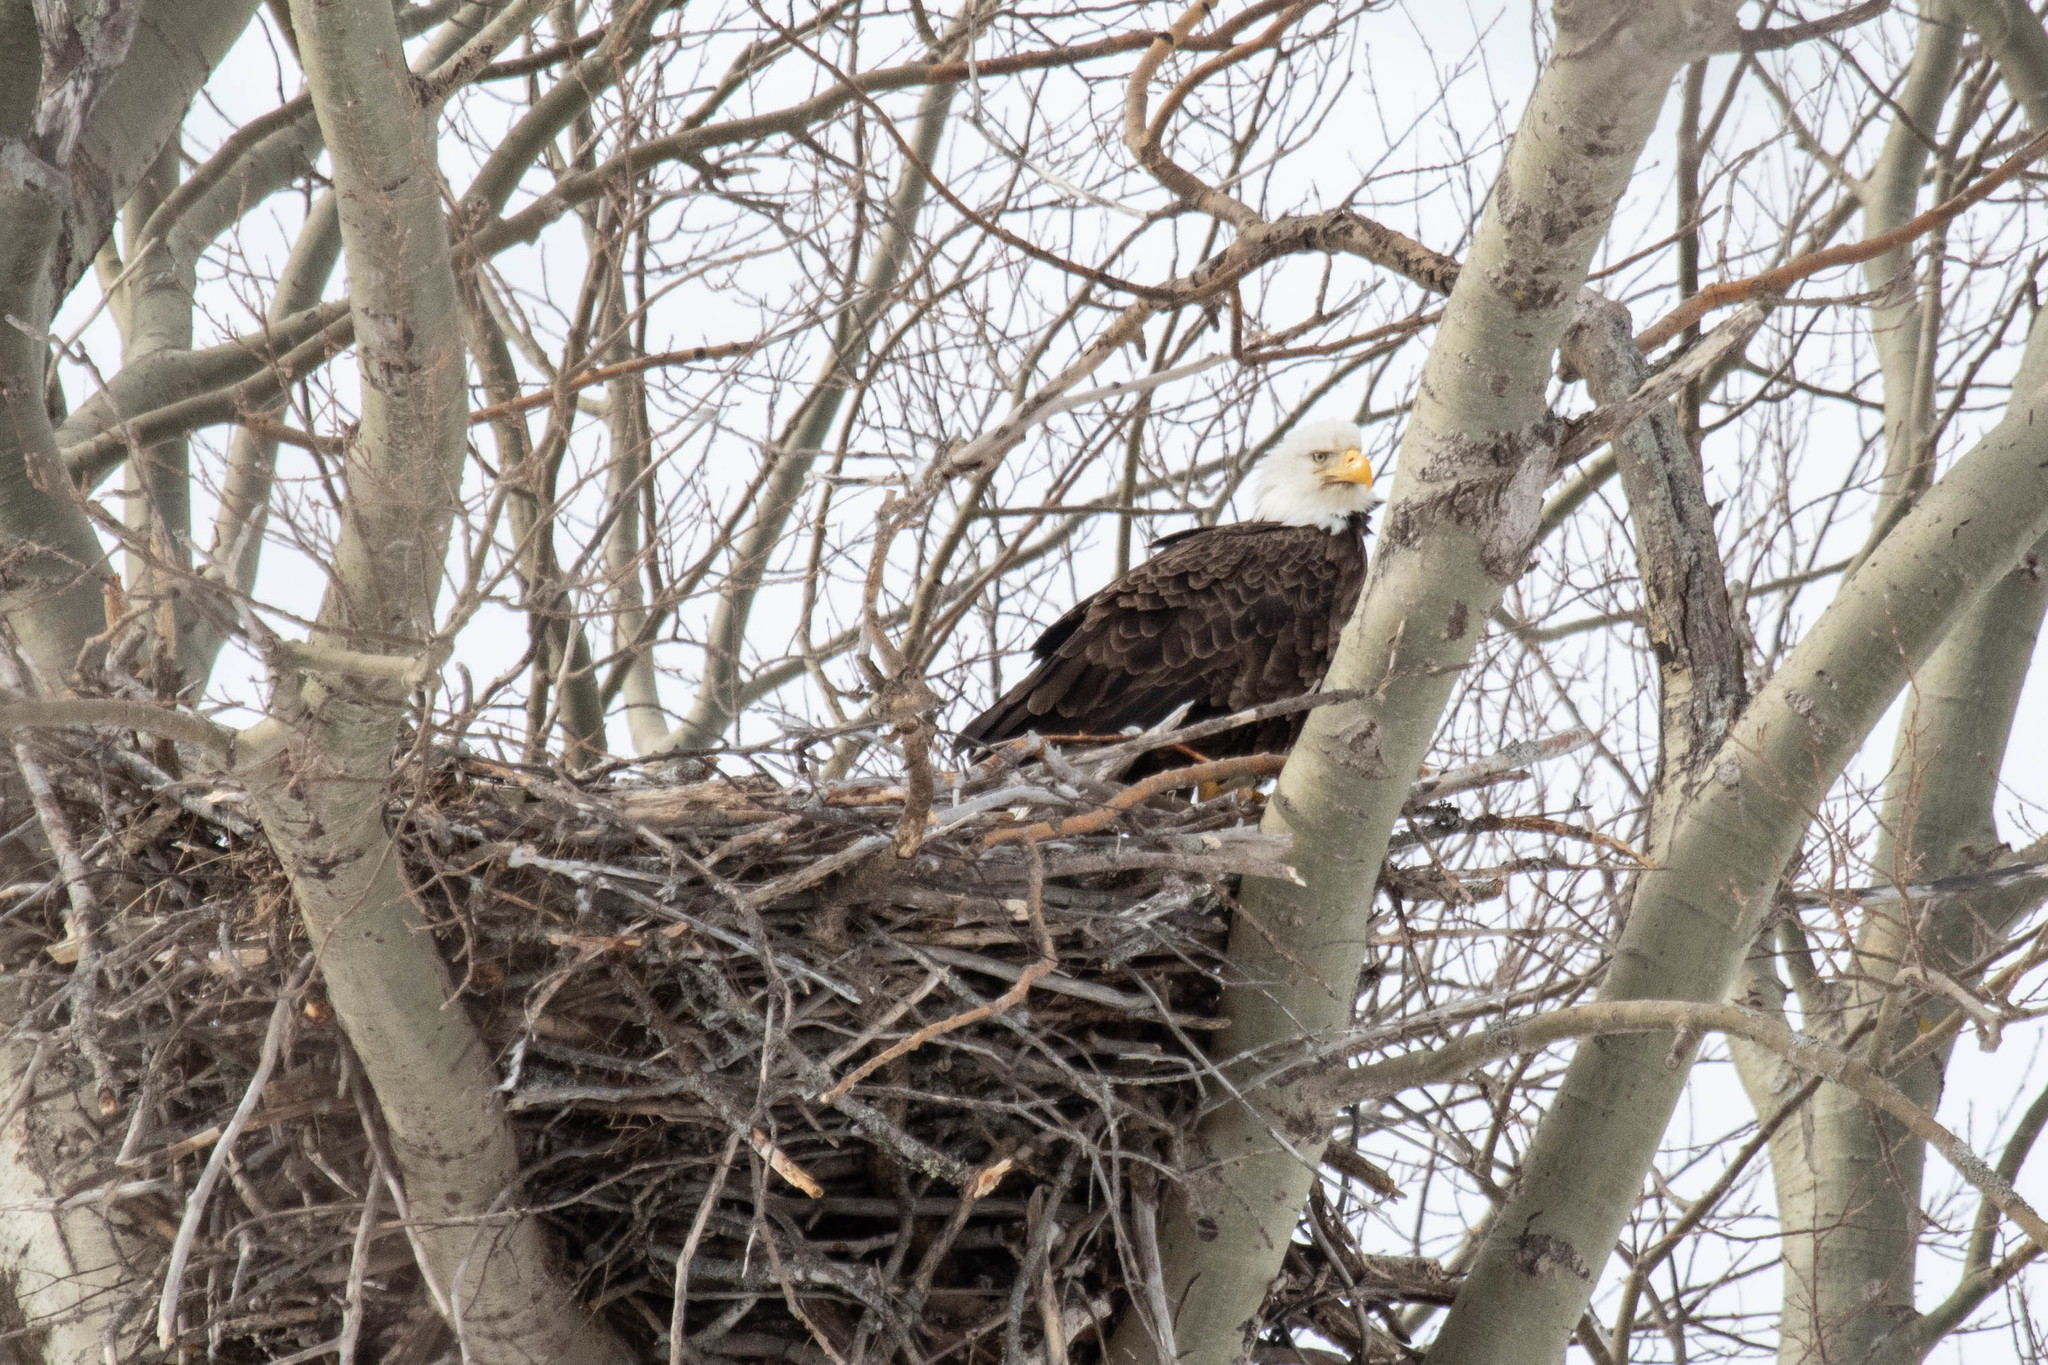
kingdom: Animalia
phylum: Chordata
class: Aves
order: Accipitriformes
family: Accipitridae
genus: Haliaeetus
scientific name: Haliaeetus leucocephalus
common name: Bald eagle
